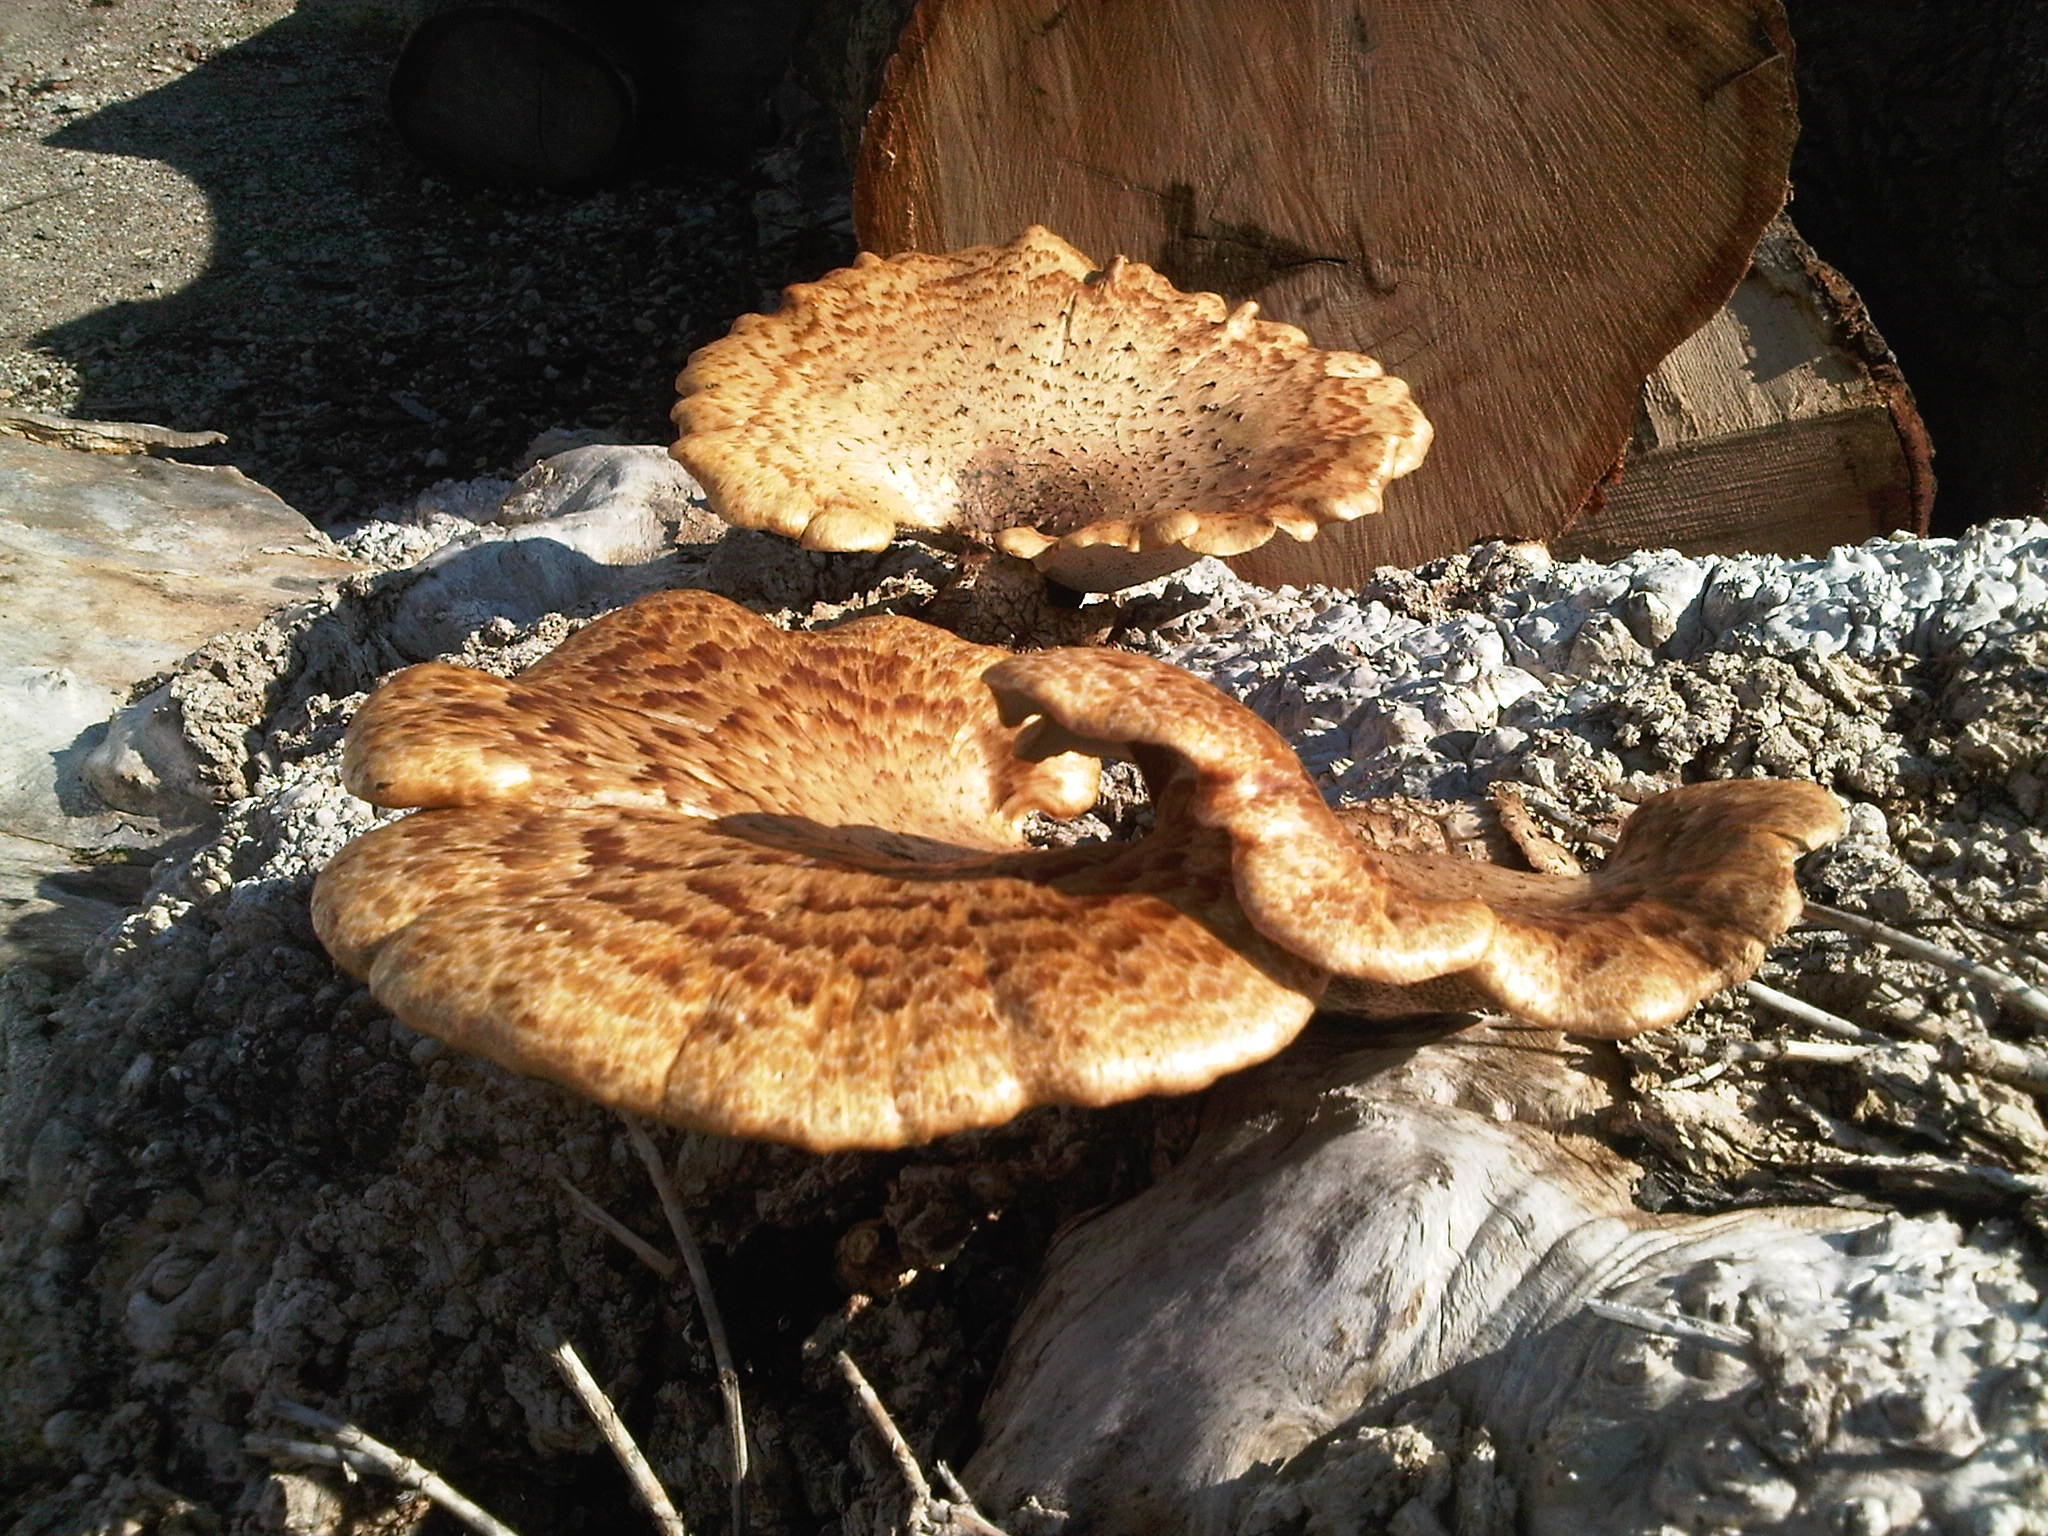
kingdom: Fungi
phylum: Basidiomycota
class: Agaricomycetes
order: Polyporales
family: Polyporaceae
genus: Cerioporus
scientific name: Cerioporus squamosus
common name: Dryad's saddle
